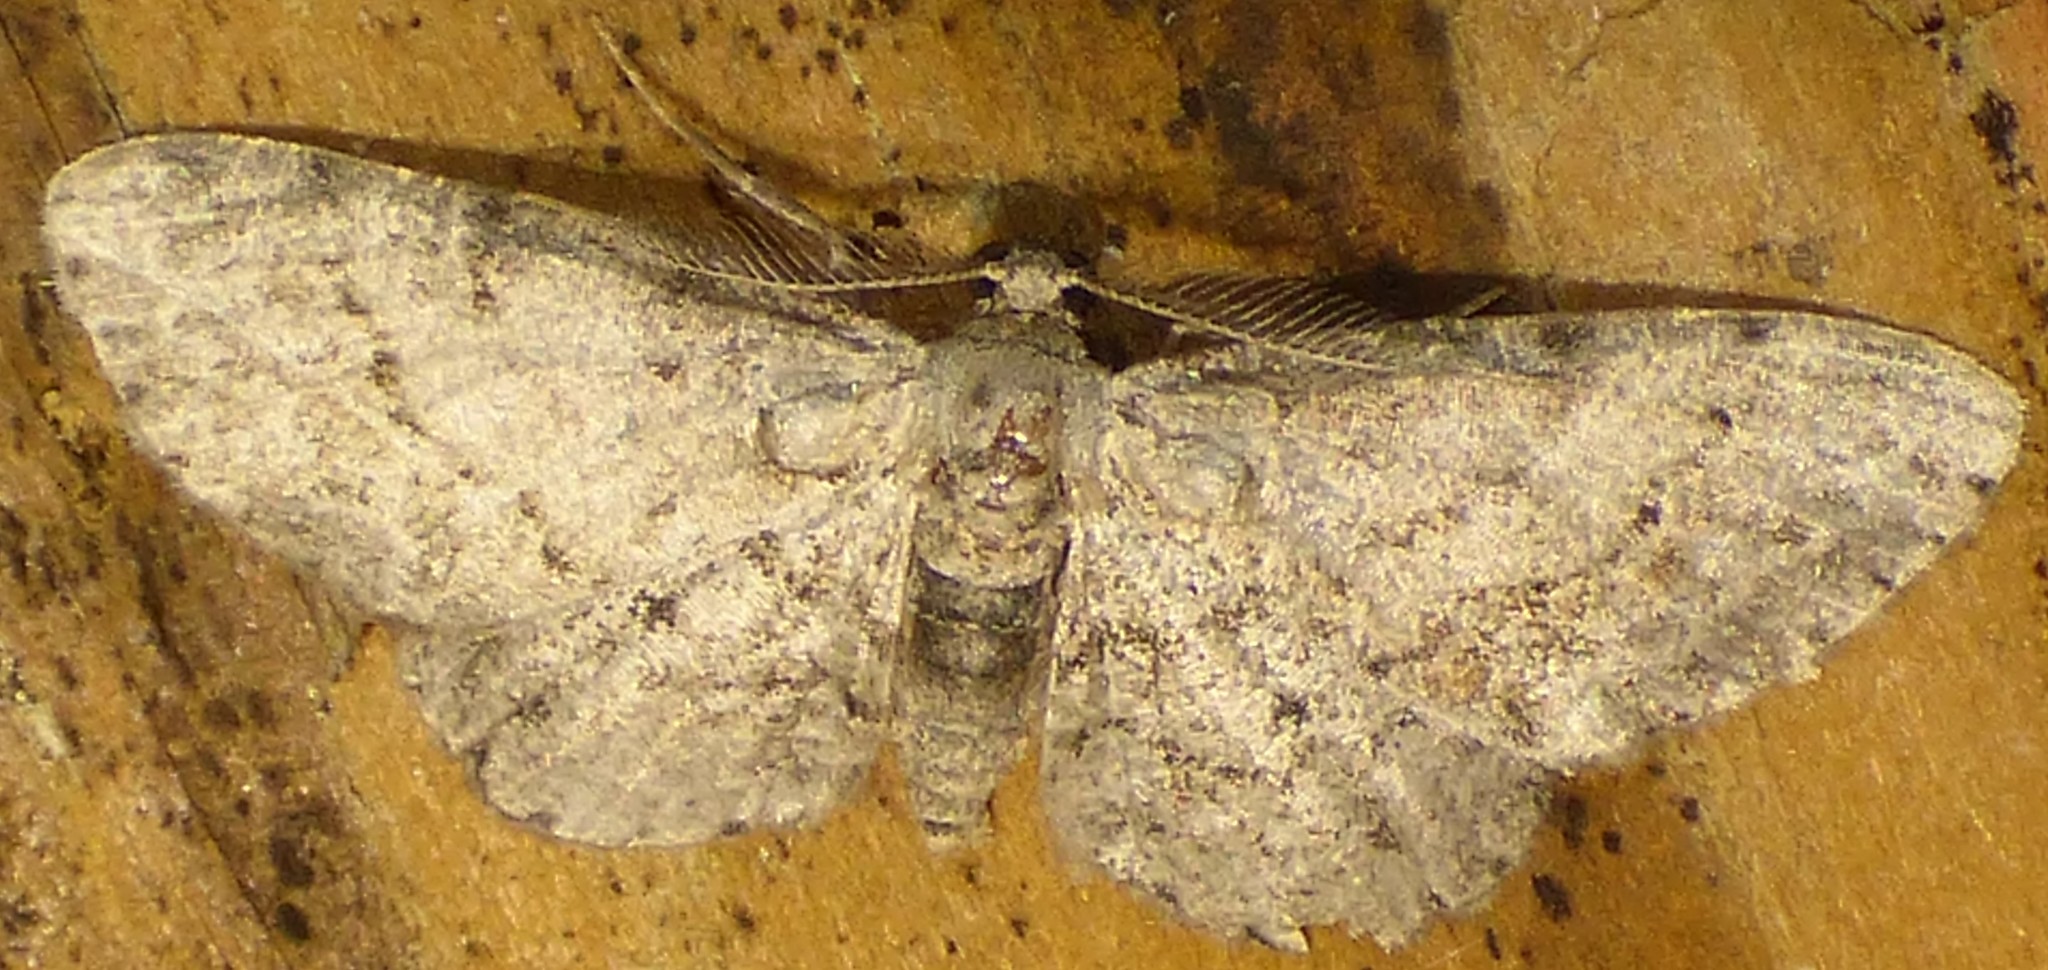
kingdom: Animalia
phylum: Arthropoda
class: Insecta
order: Lepidoptera
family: Geometridae
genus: Glenoides
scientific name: Glenoides texanaria
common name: Texas gray
